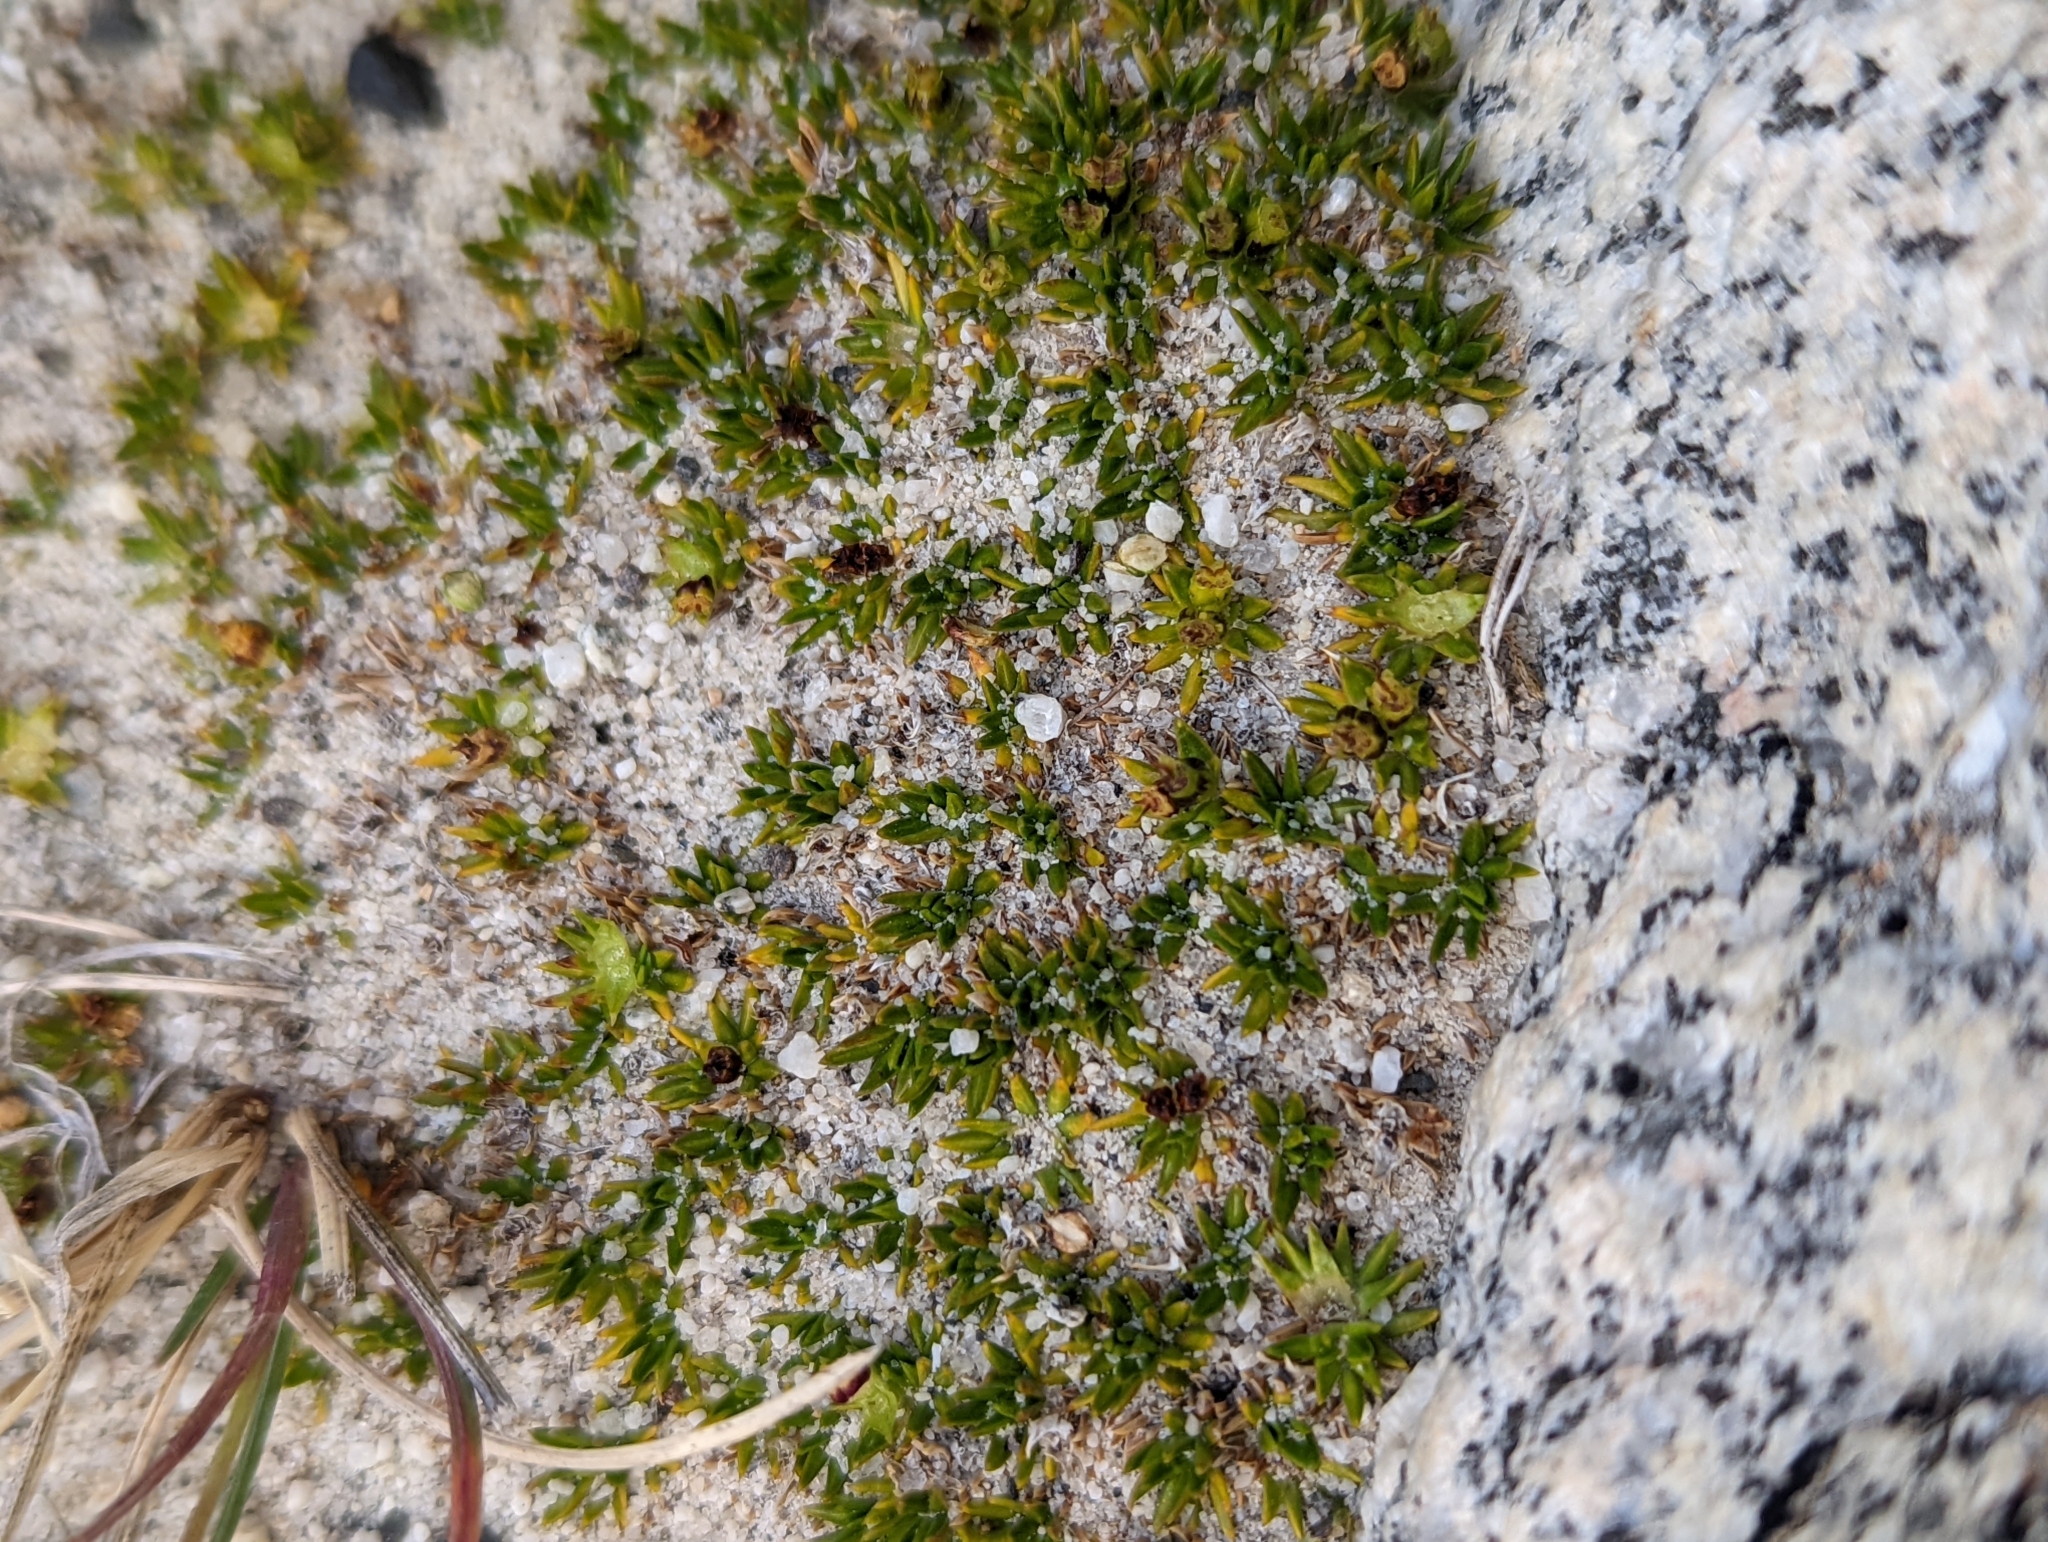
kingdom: Plantae
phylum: Tracheophyta
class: Magnoliopsida
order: Apiales
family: Apiaceae
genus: Azorella
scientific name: Azorella lycopodioides
